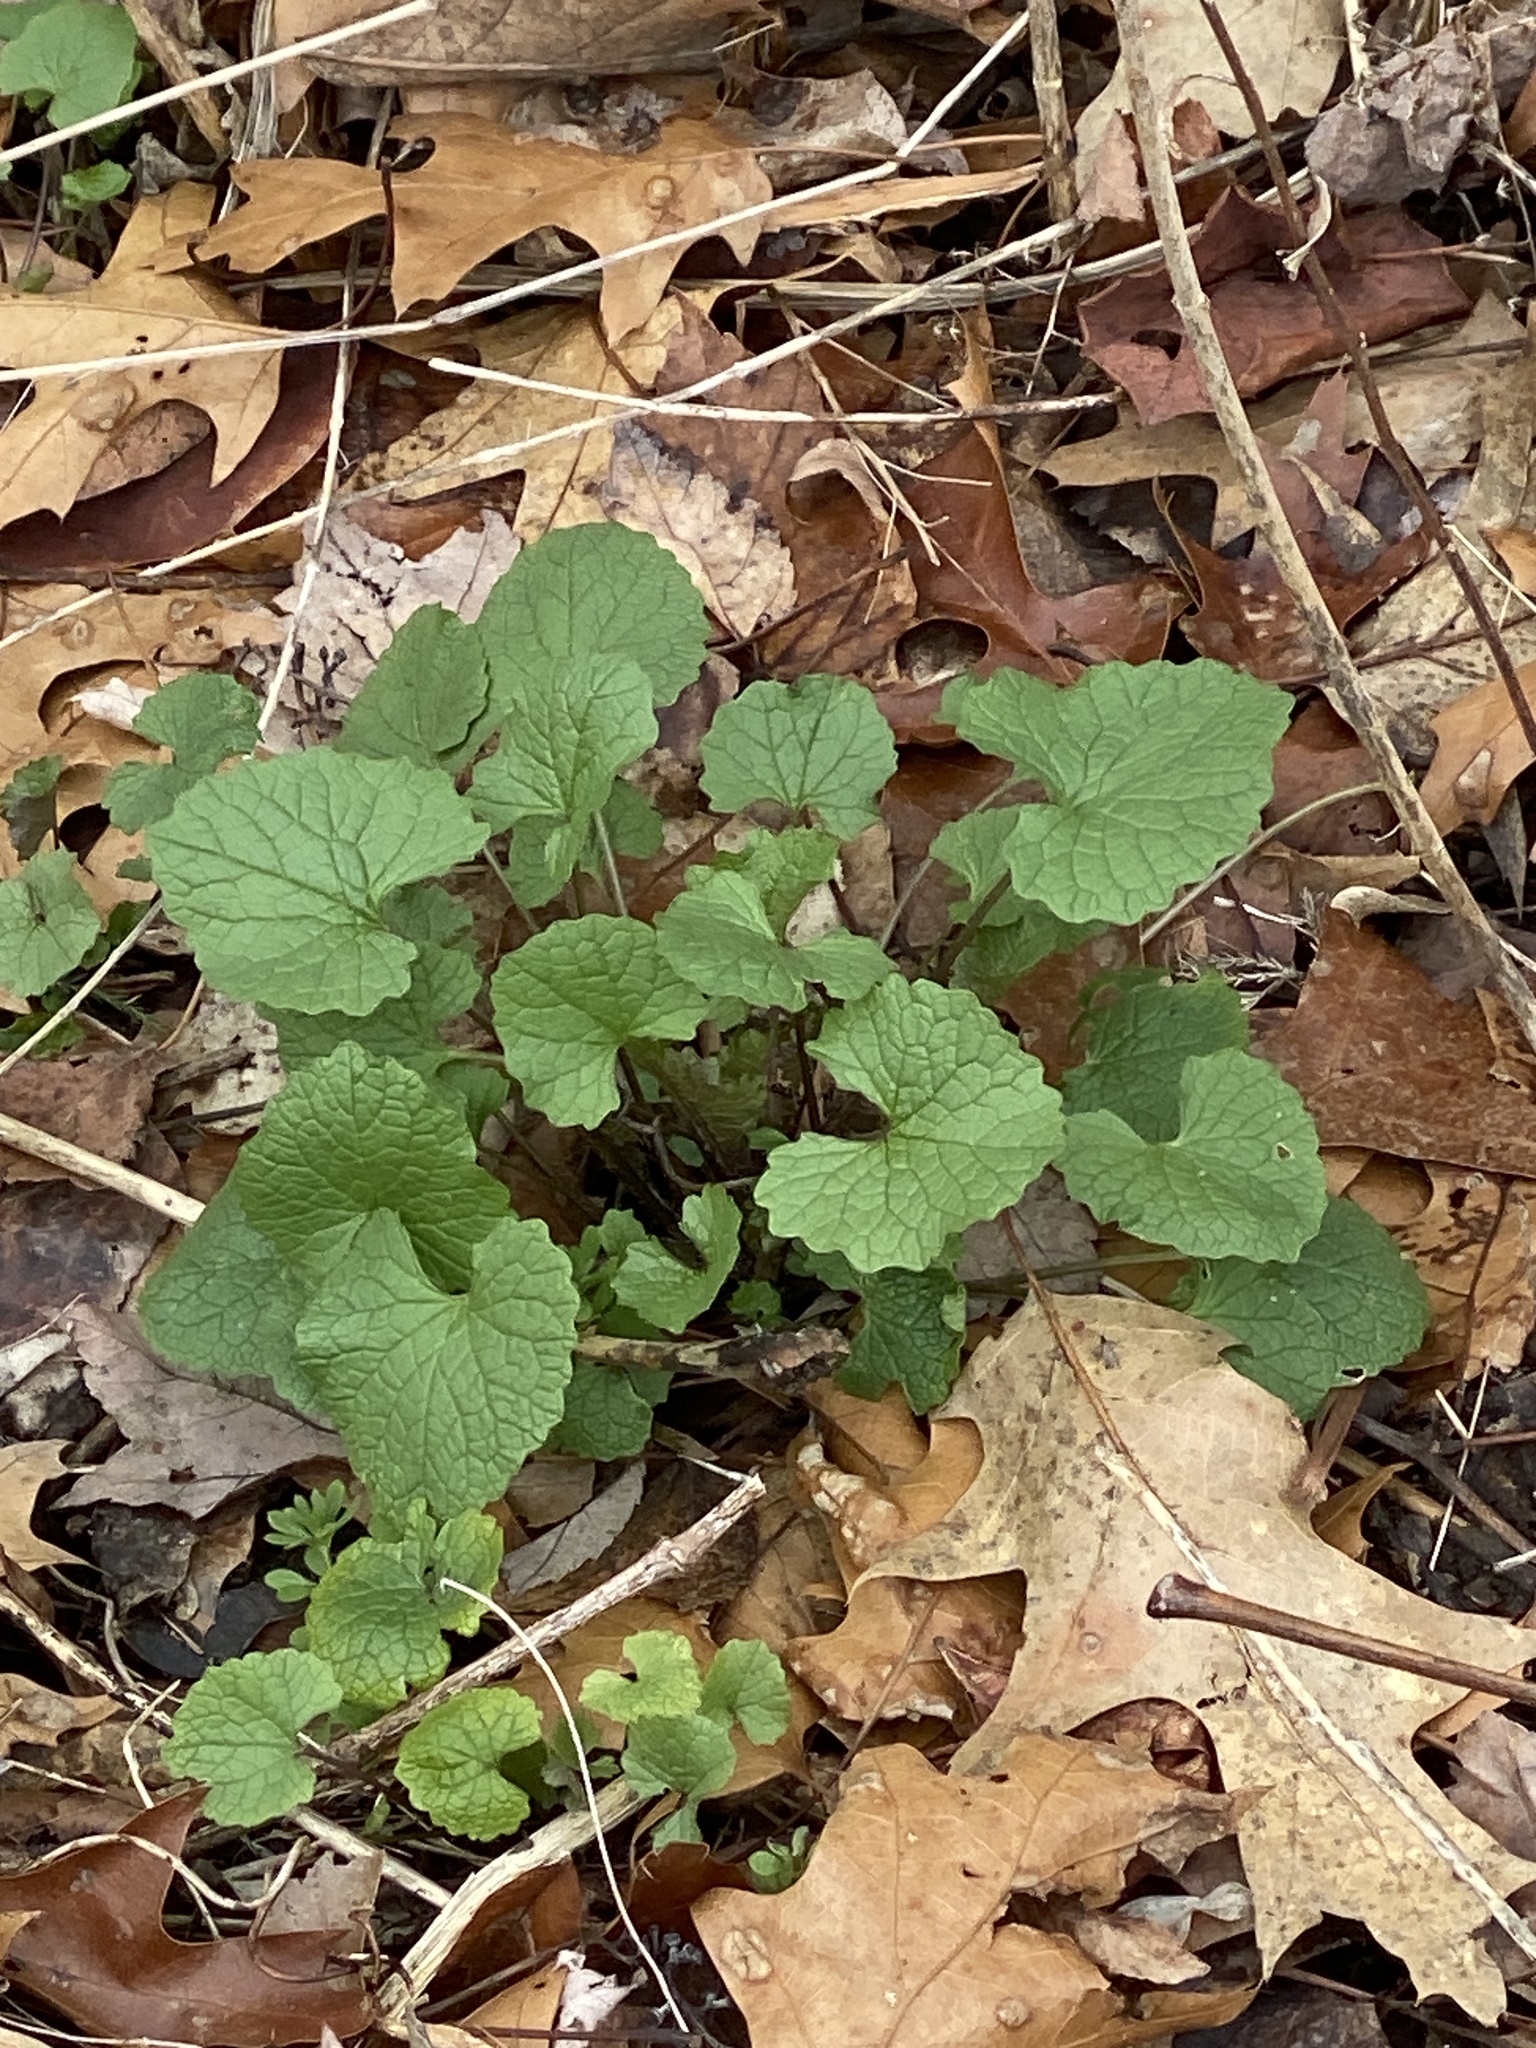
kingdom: Plantae
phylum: Tracheophyta
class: Magnoliopsida
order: Brassicales
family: Brassicaceae
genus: Alliaria
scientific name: Alliaria petiolata
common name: Garlic mustard
